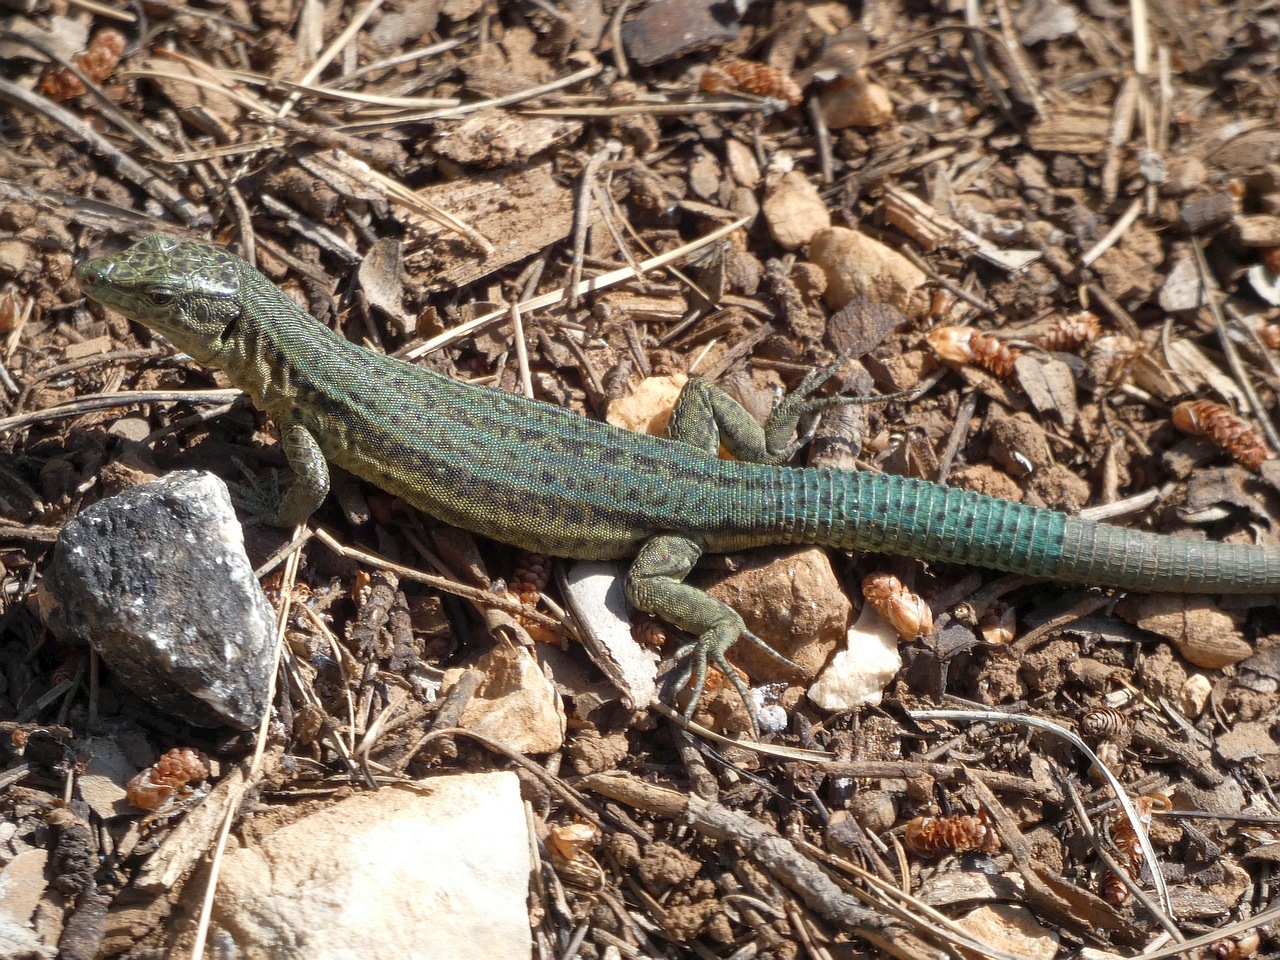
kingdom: Animalia
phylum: Chordata
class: Squamata
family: Lacertidae
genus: Podarcis
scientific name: Podarcis lilfordi
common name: Belearic lizard
